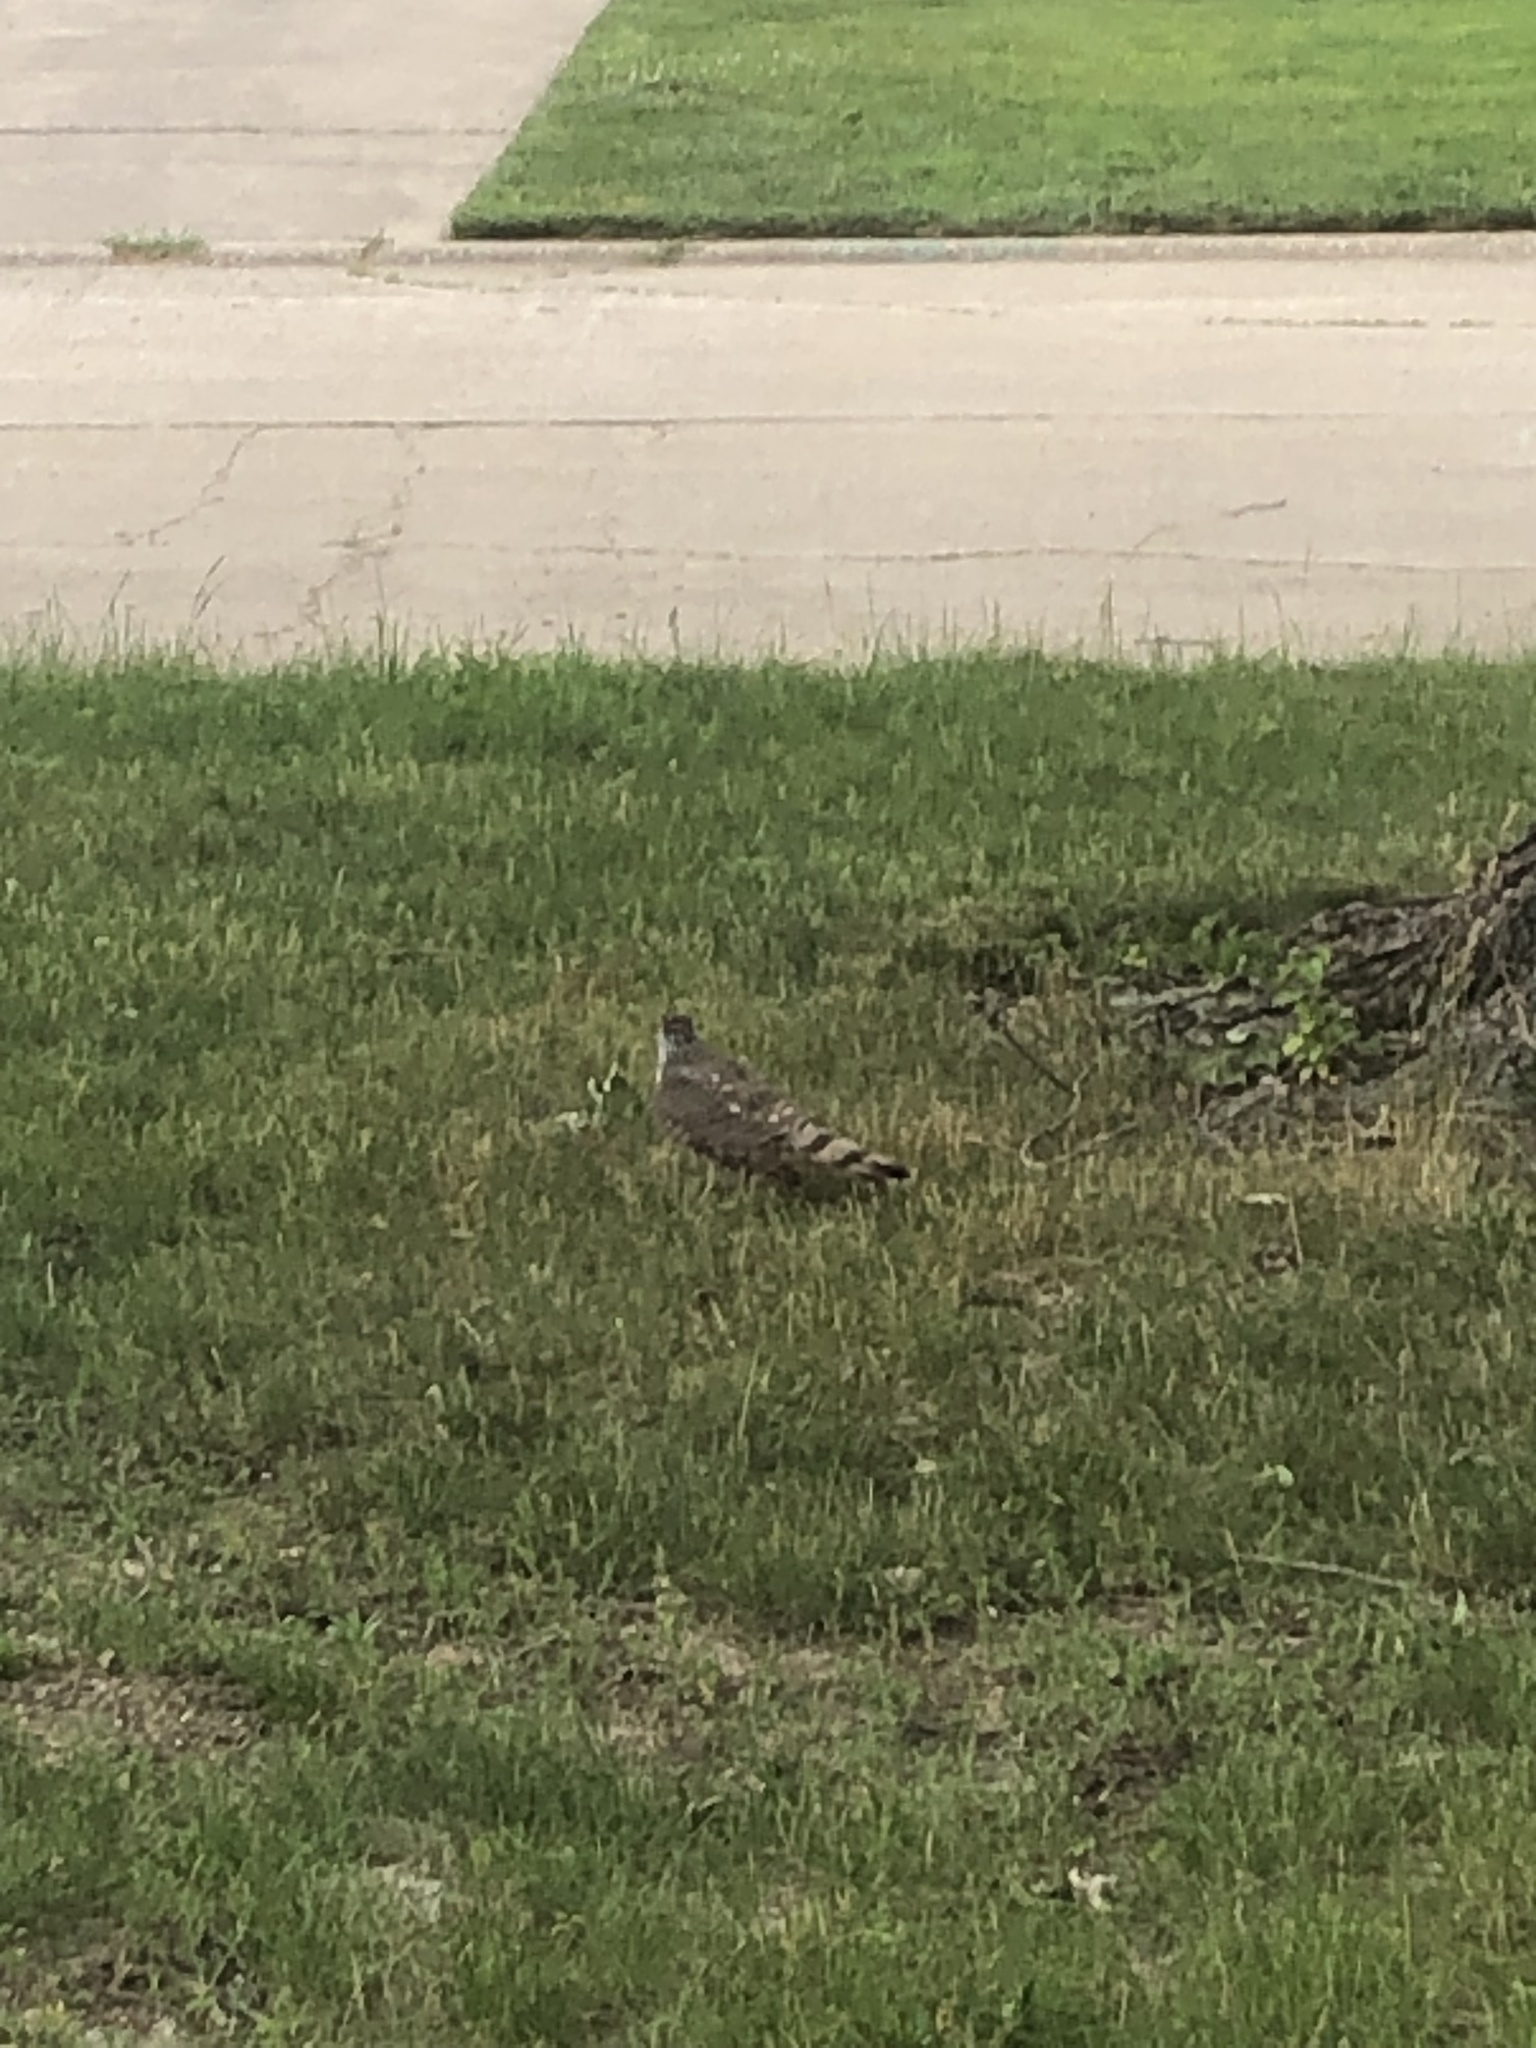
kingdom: Animalia
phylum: Chordata
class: Aves
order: Accipitriformes
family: Accipitridae
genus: Accipiter
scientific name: Accipiter cooperii
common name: Cooper's hawk
